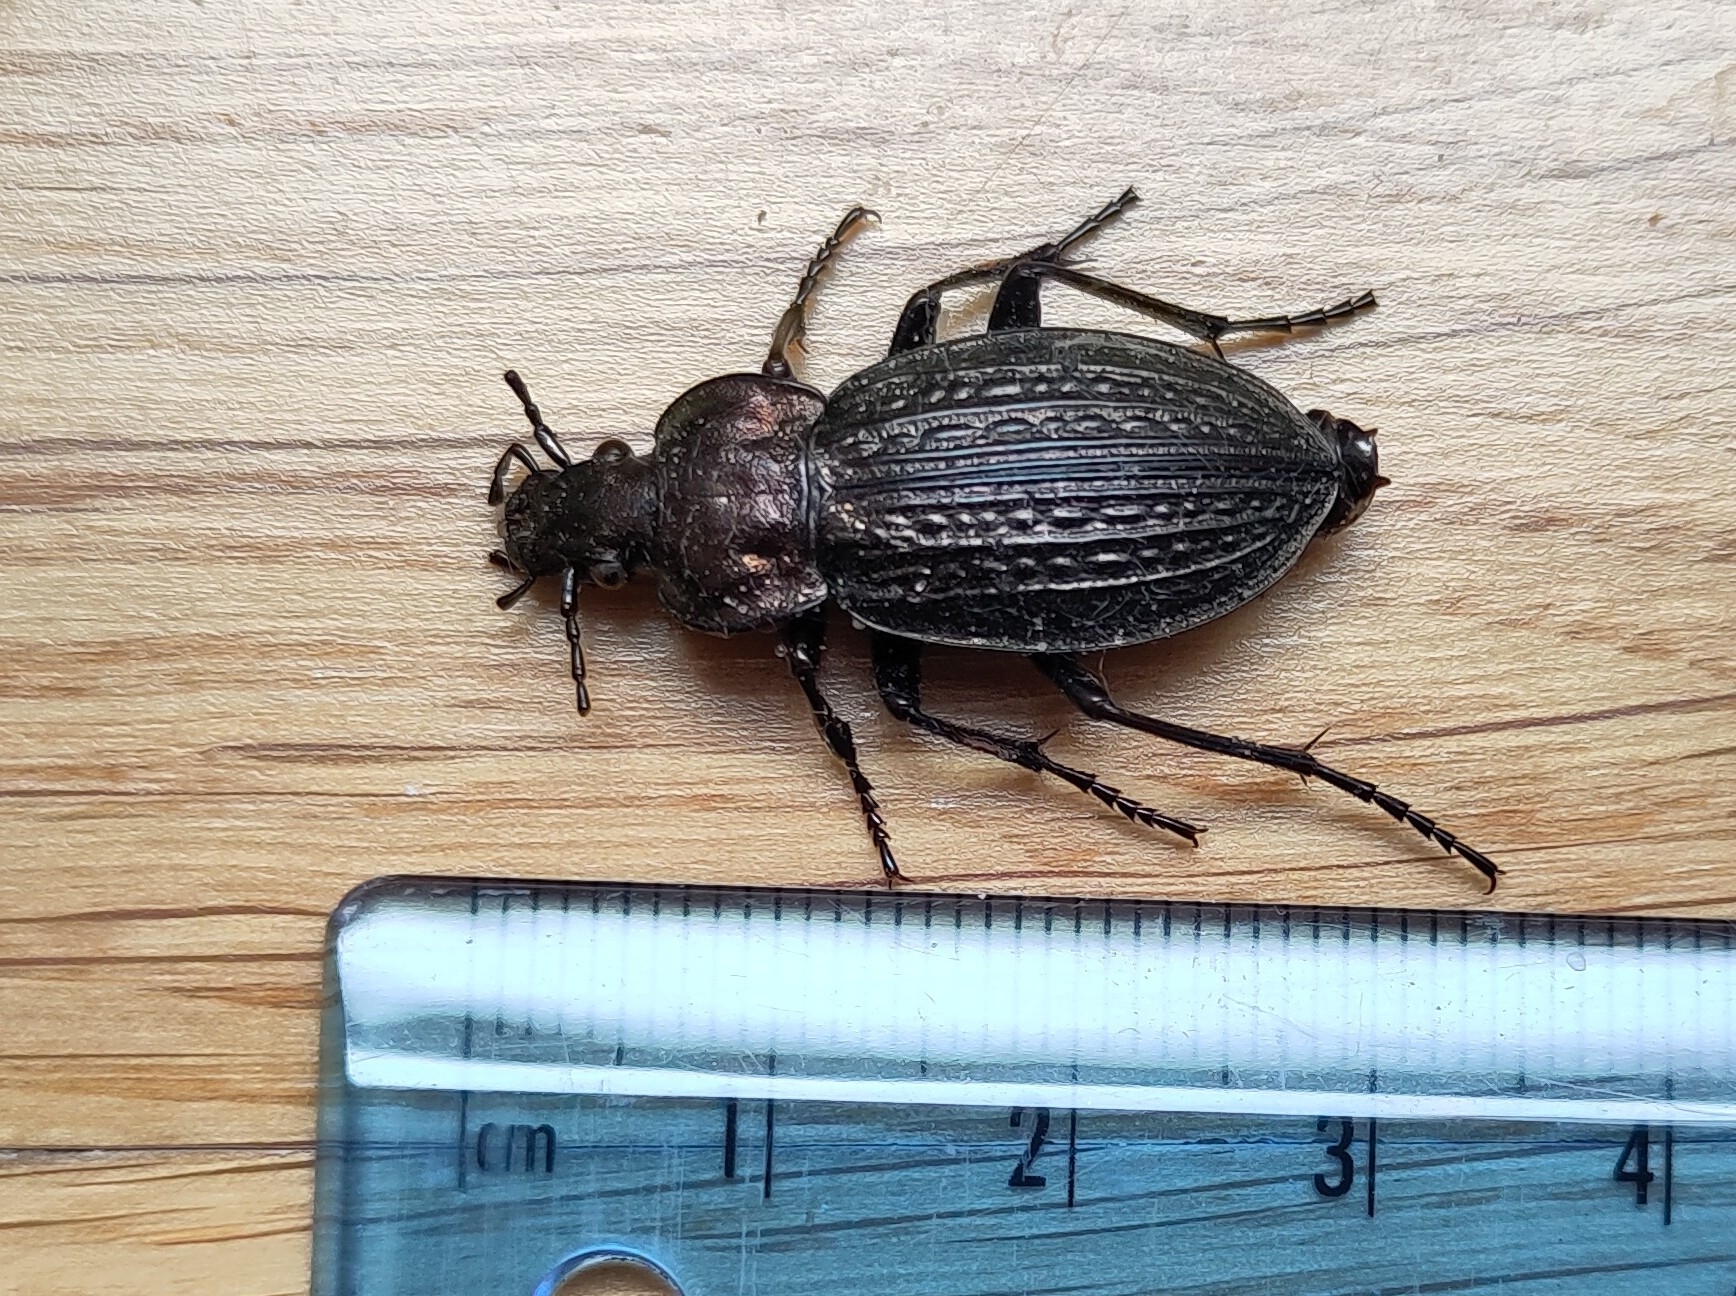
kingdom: Animalia
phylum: Arthropoda
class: Insecta
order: Coleoptera
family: Carabidae
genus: Carabus
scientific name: Carabus ulrichii
